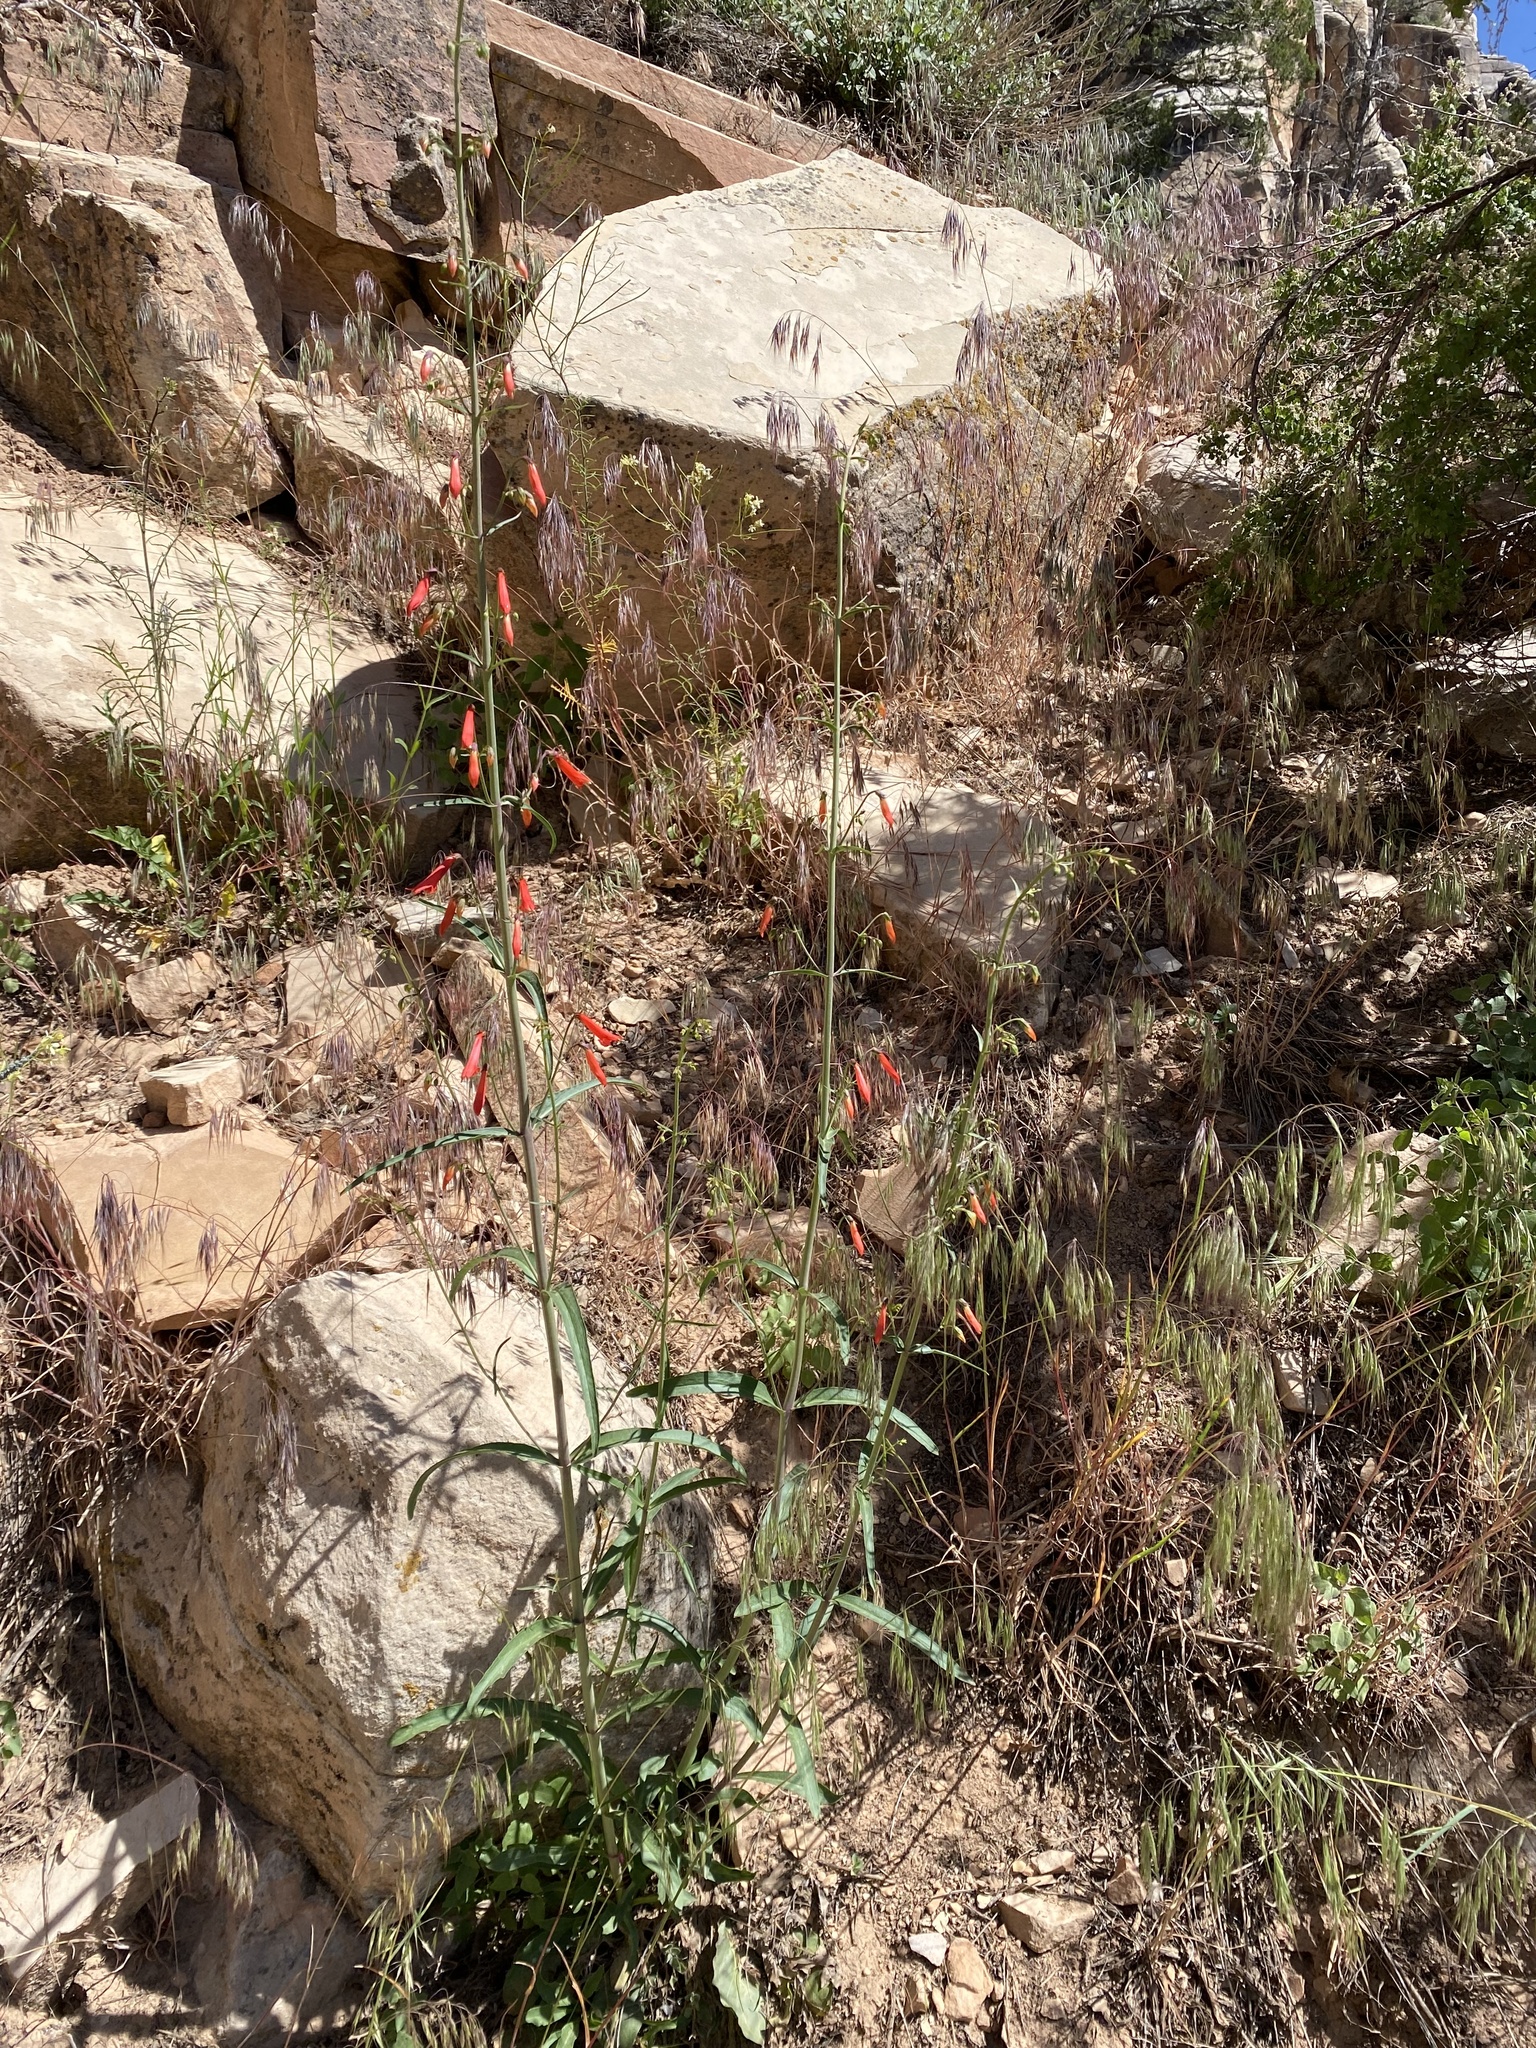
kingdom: Plantae
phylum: Tracheophyta
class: Magnoliopsida
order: Lamiales
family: Plantaginaceae
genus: Penstemon
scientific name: Penstemon barbatus
